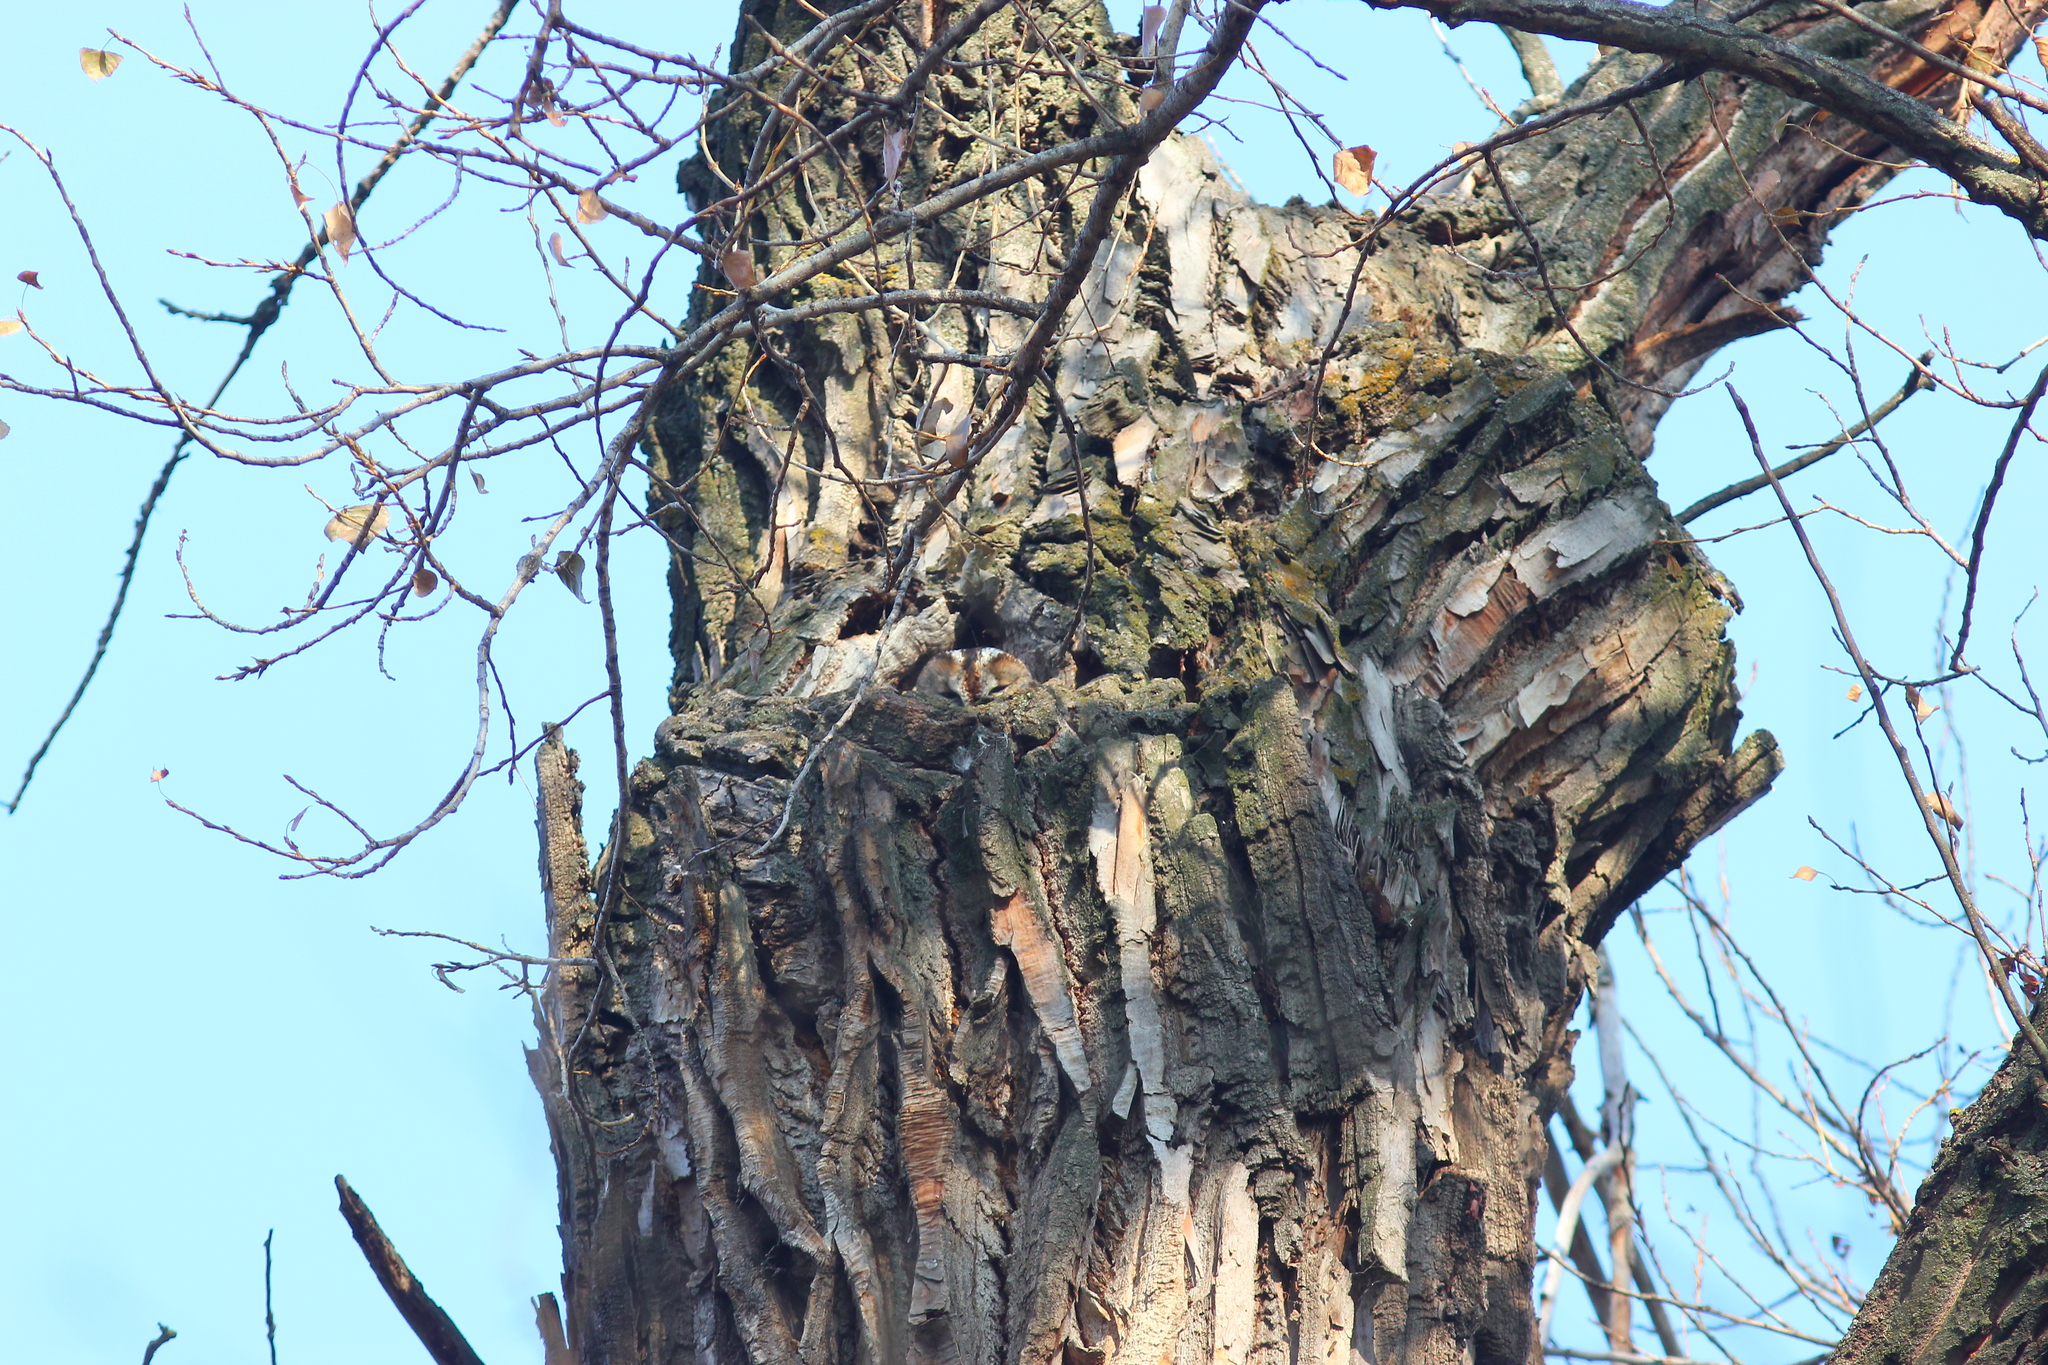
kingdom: Animalia
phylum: Chordata
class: Aves
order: Strigiformes
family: Strigidae
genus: Strix
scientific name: Strix aluco
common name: Tawny owl
